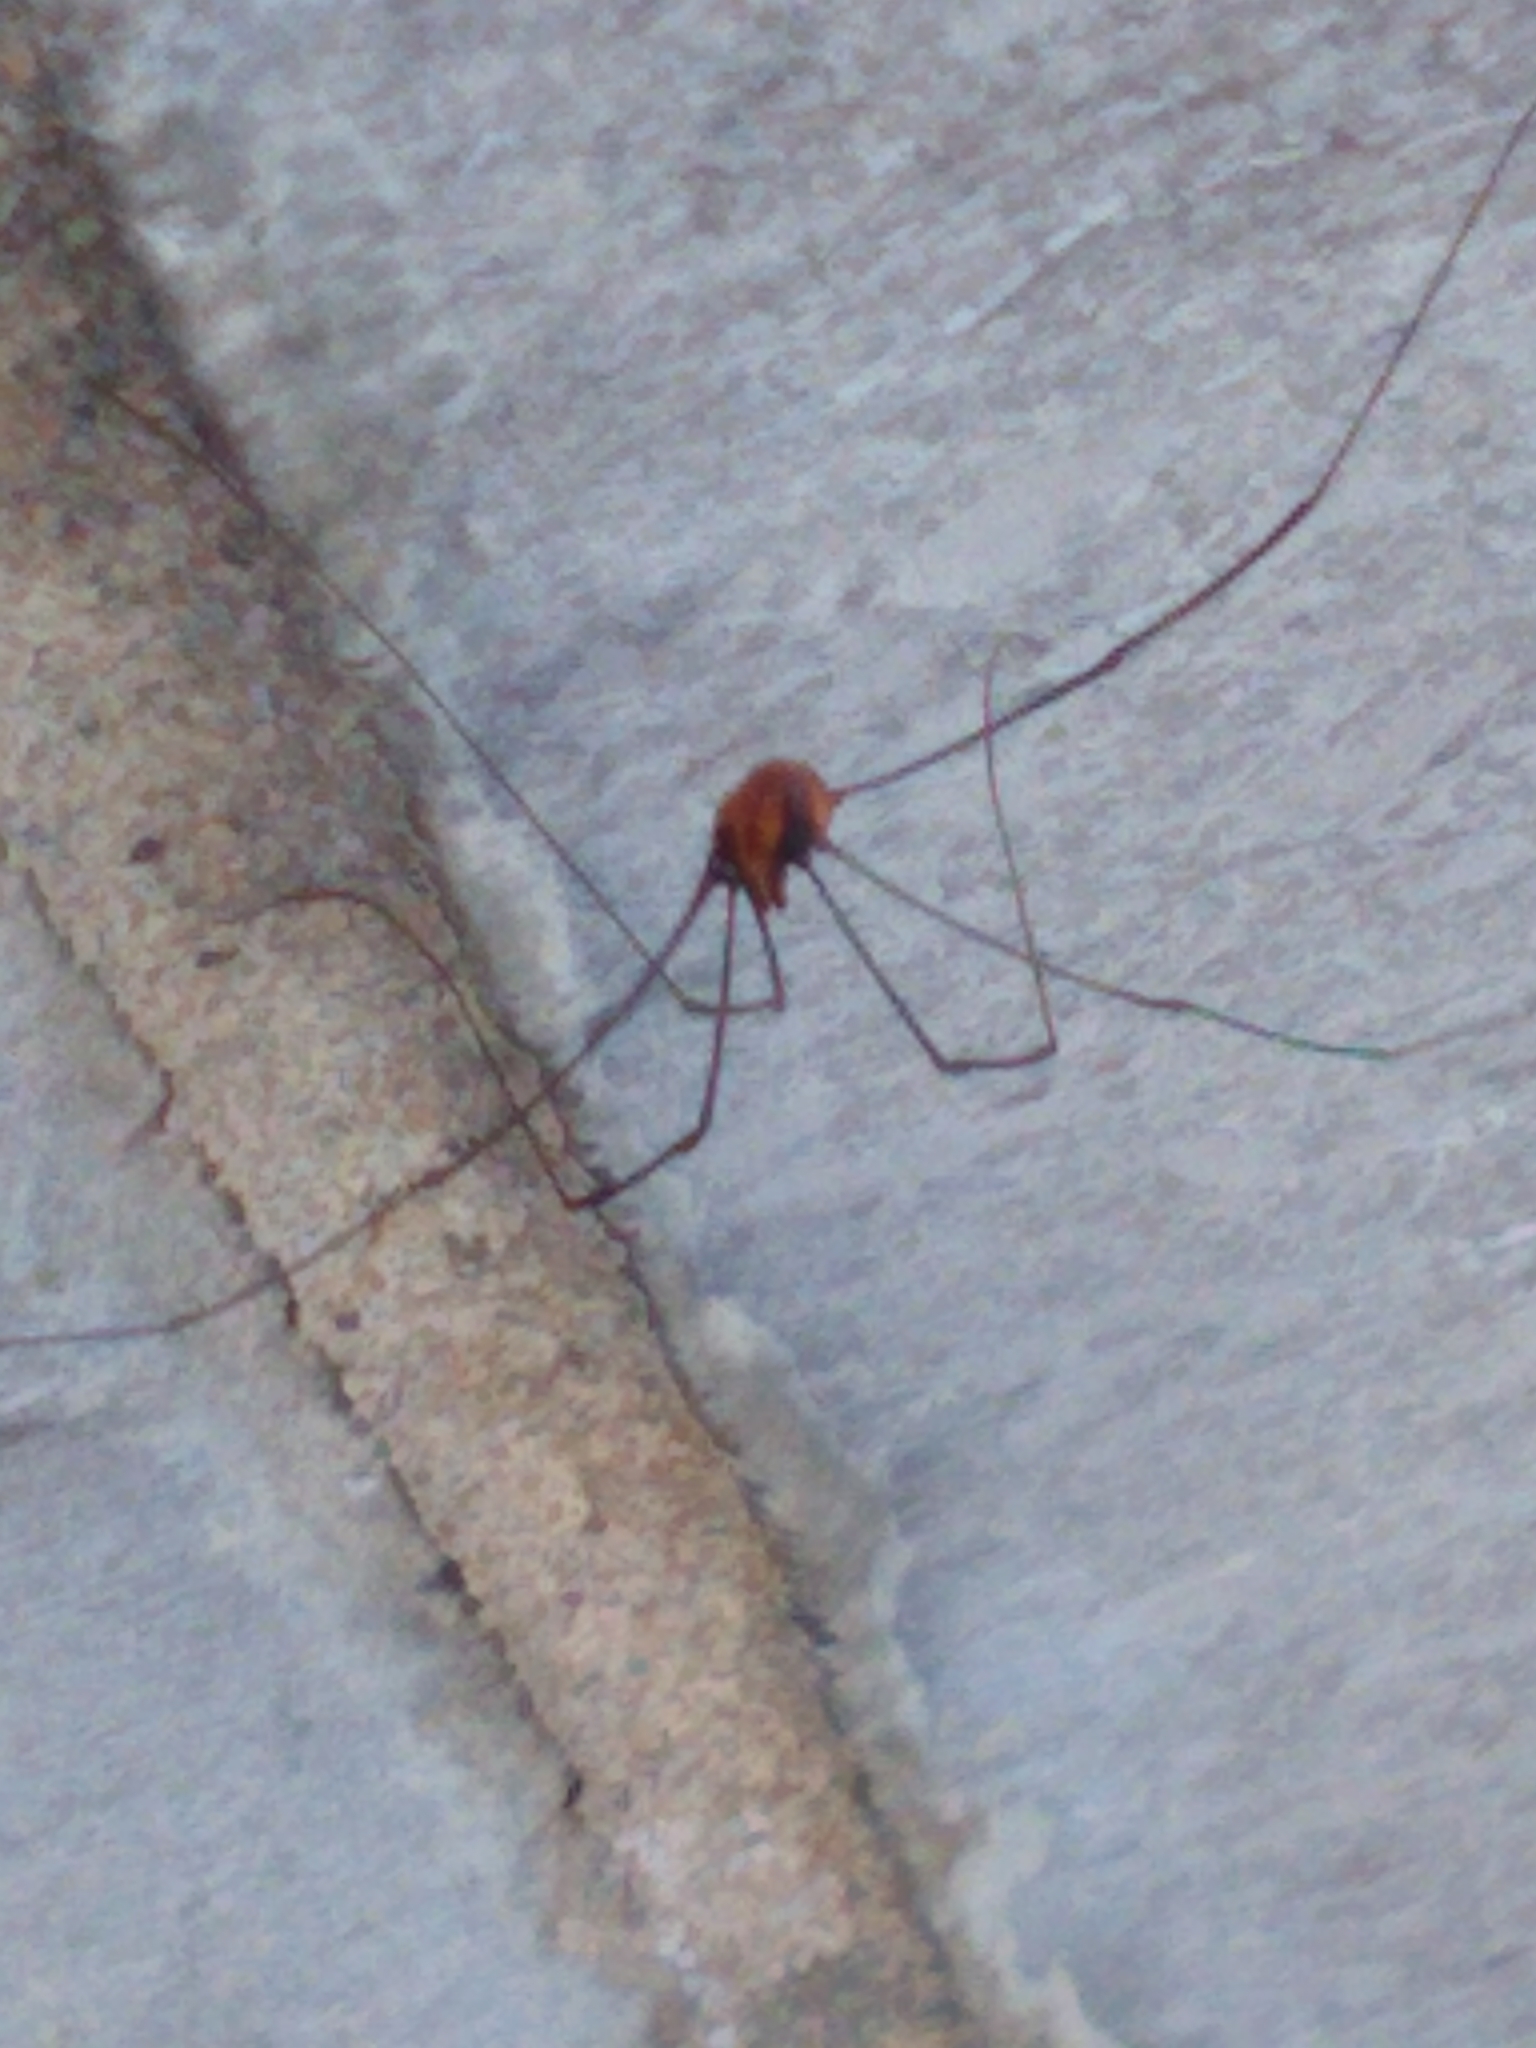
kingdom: Animalia
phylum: Arthropoda
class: Arachnida
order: Opiliones
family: Sclerosomatidae
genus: Leiobunum
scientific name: Leiobunum vittatum
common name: Eastern harvestman
